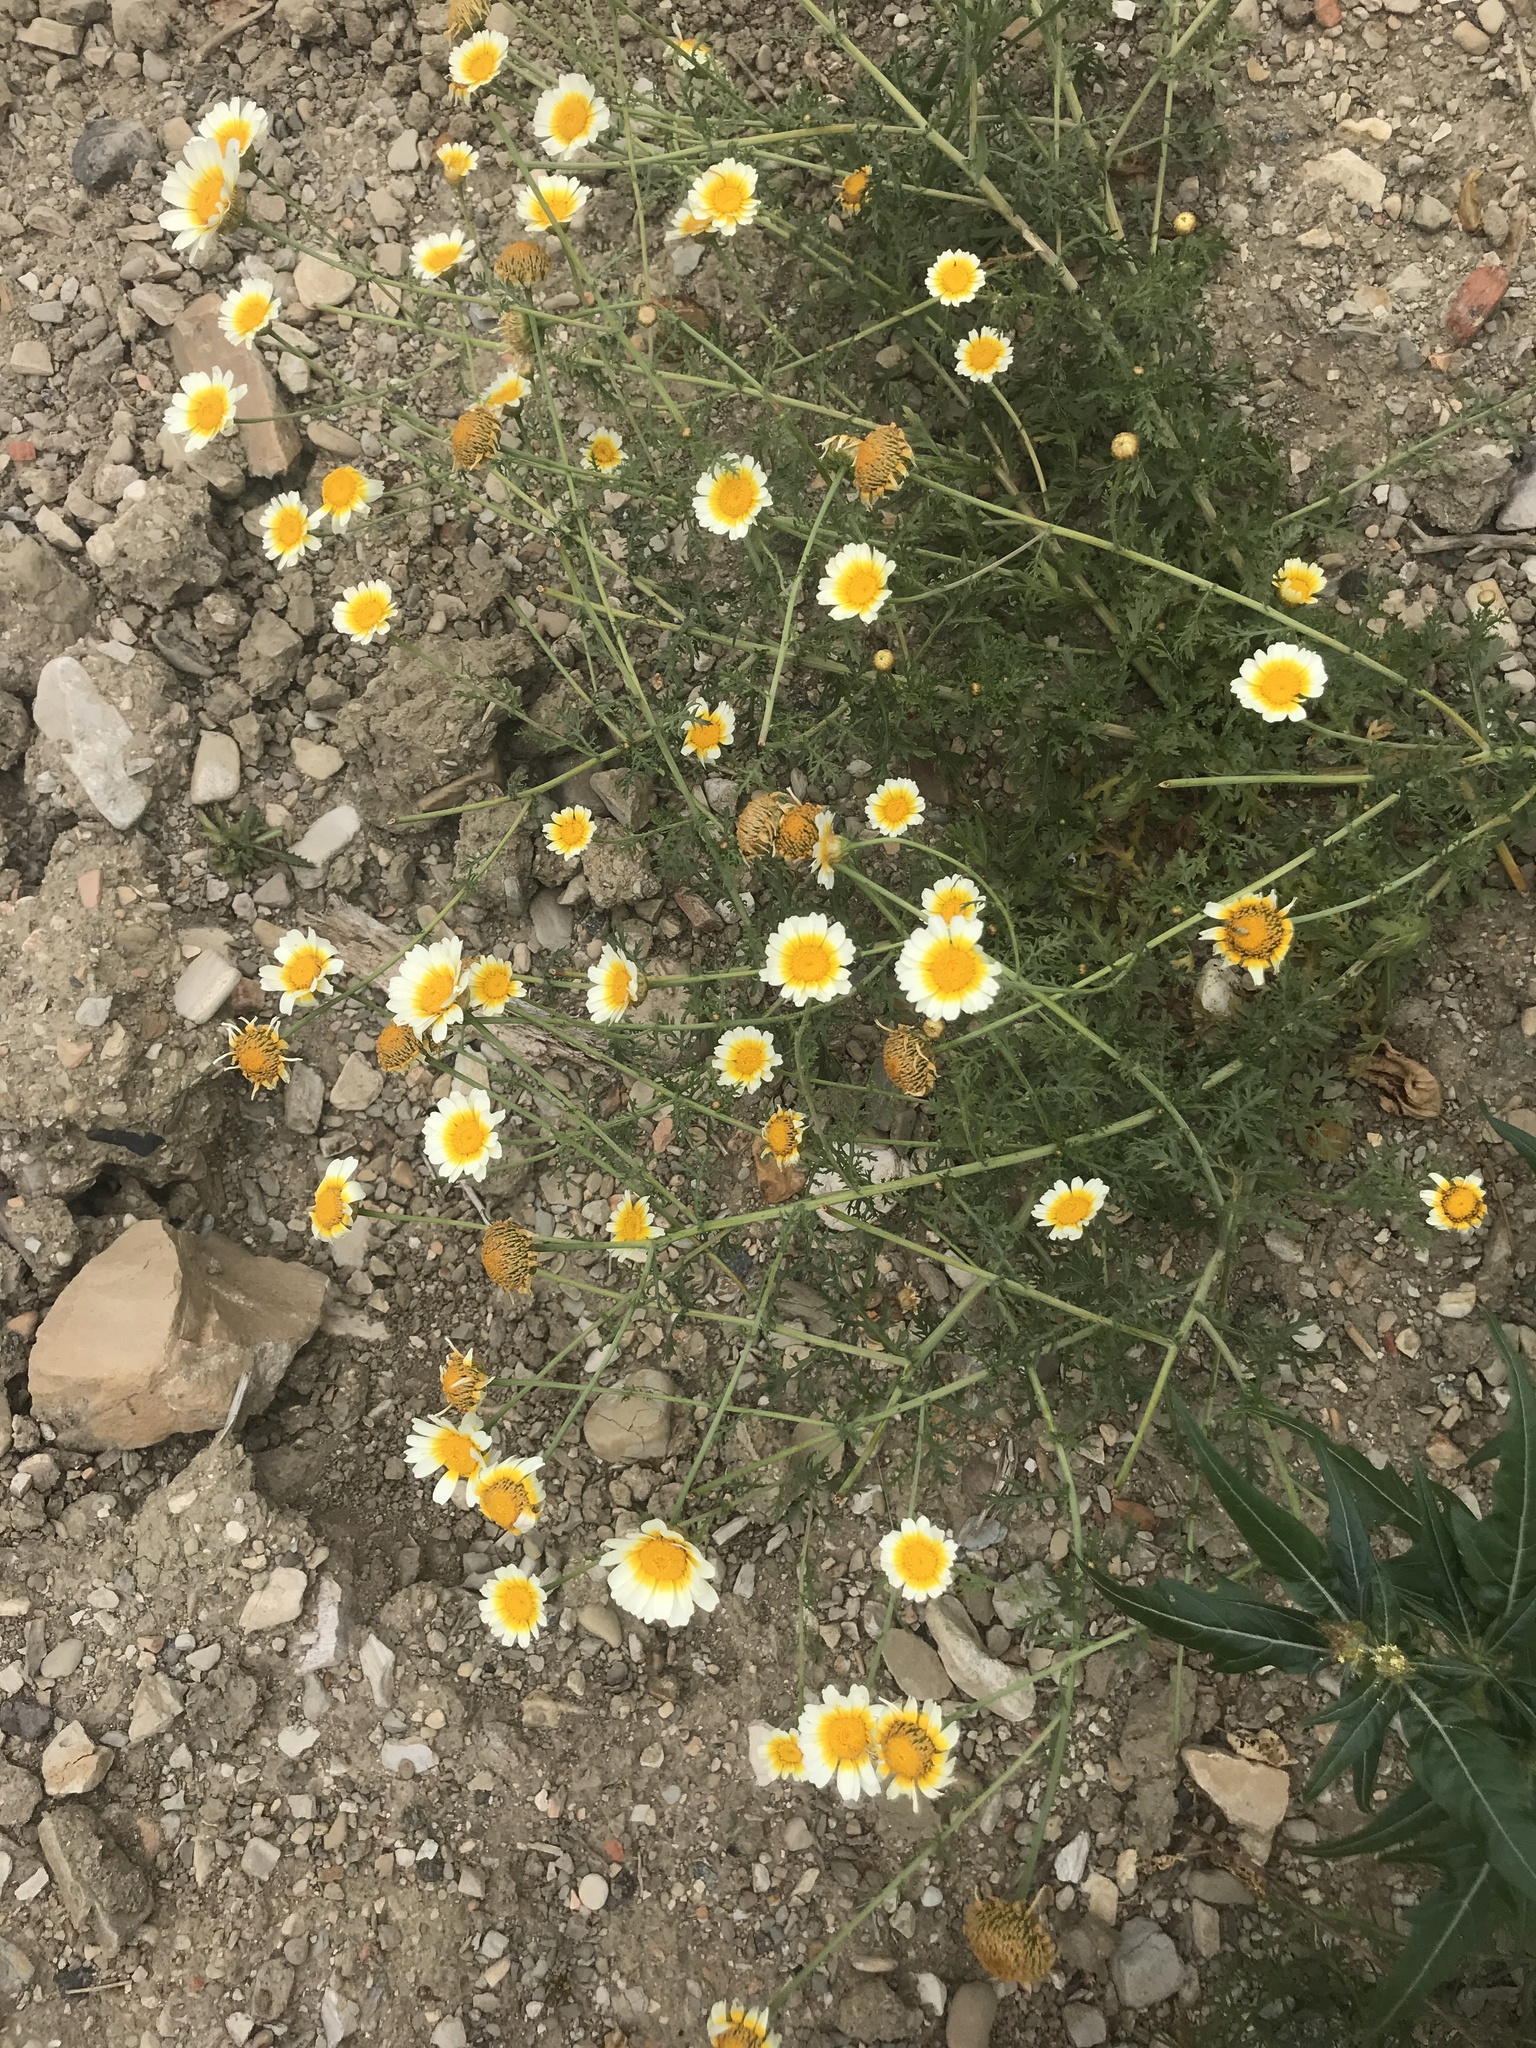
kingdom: Plantae
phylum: Tracheophyta
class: Magnoliopsida
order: Asterales
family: Asteraceae
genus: Glebionis
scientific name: Glebionis coronaria
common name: Crowndaisy
